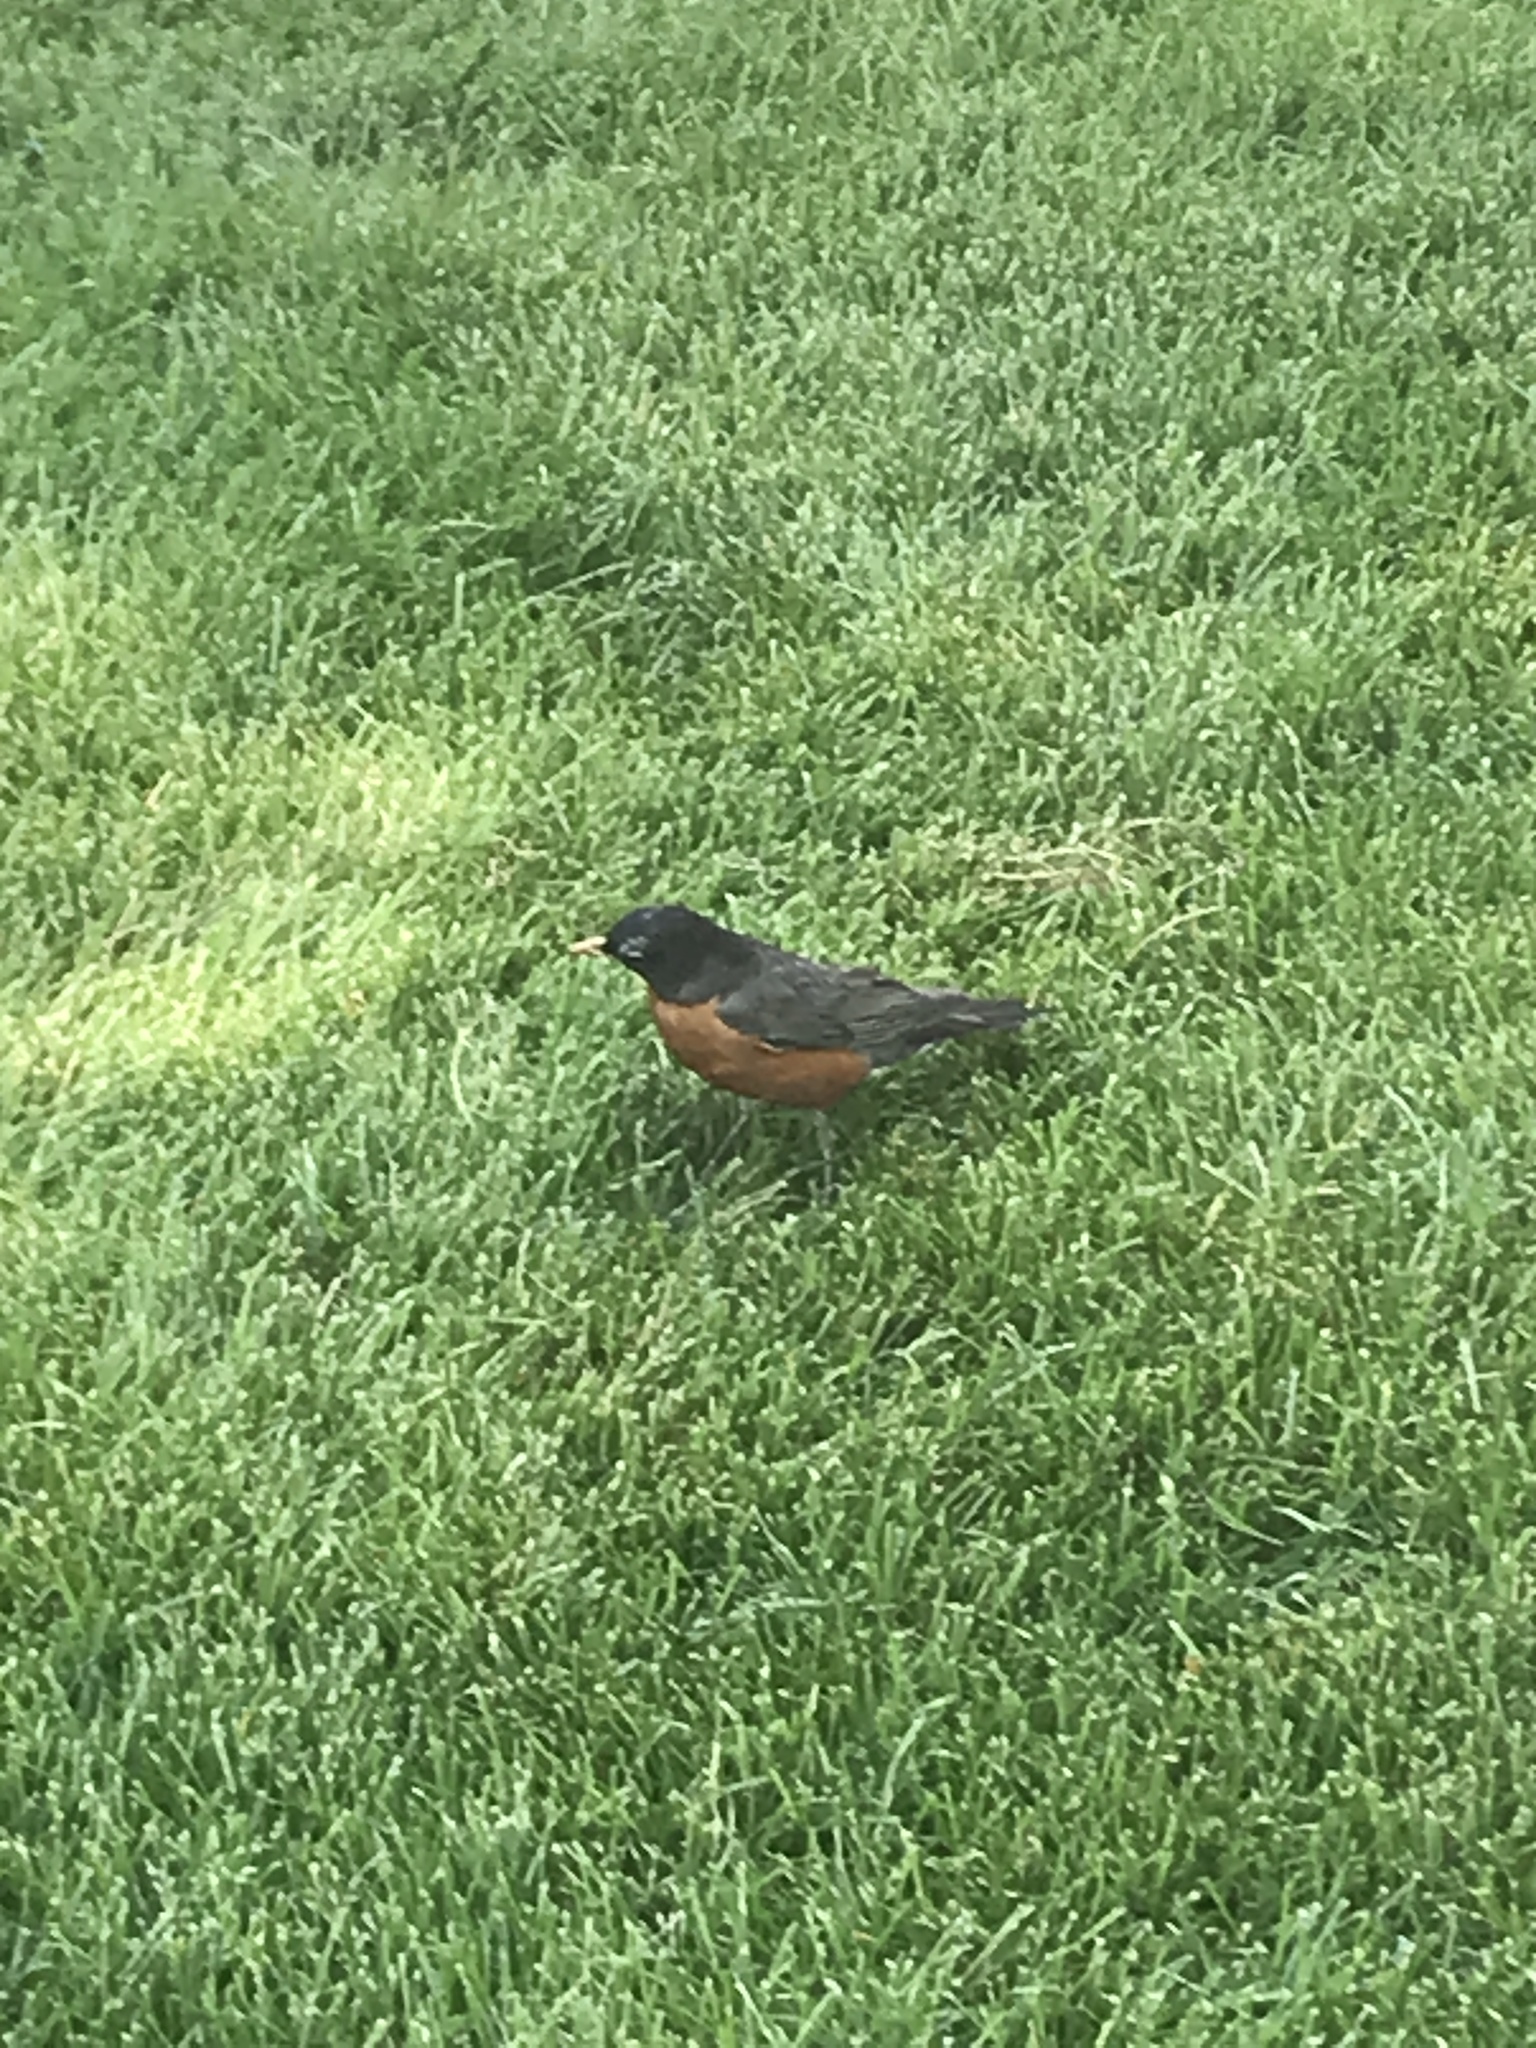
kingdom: Animalia
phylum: Chordata
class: Aves
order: Passeriformes
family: Turdidae
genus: Turdus
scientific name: Turdus migratorius
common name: American robin
